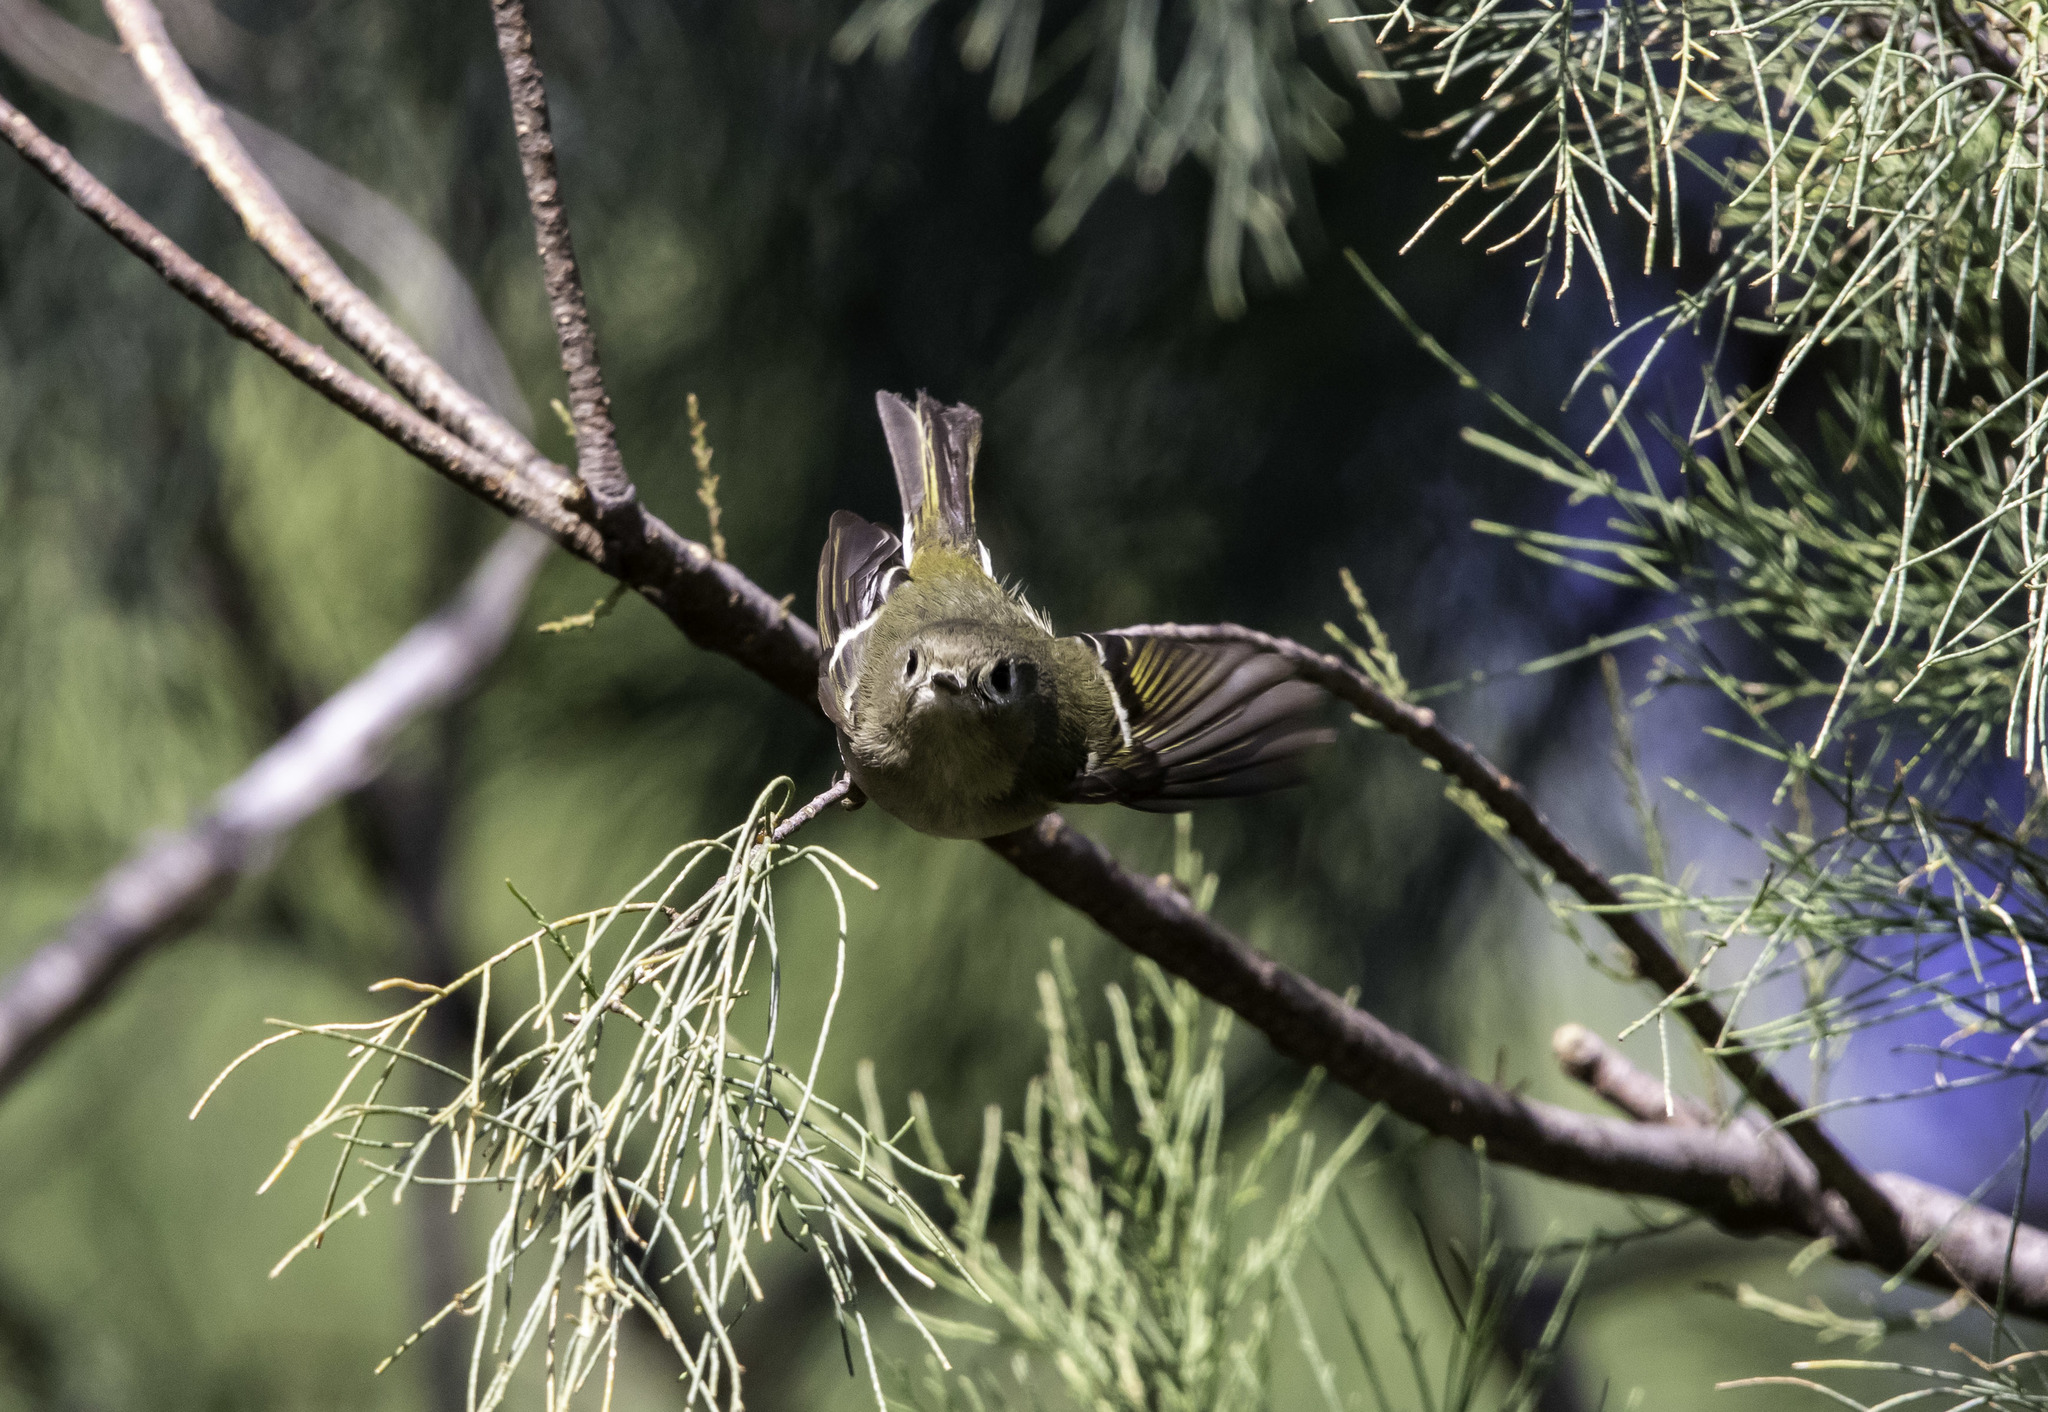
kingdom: Animalia
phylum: Chordata
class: Aves
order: Passeriformes
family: Regulidae
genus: Regulus
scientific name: Regulus calendula
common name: Ruby-crowned kinglet
